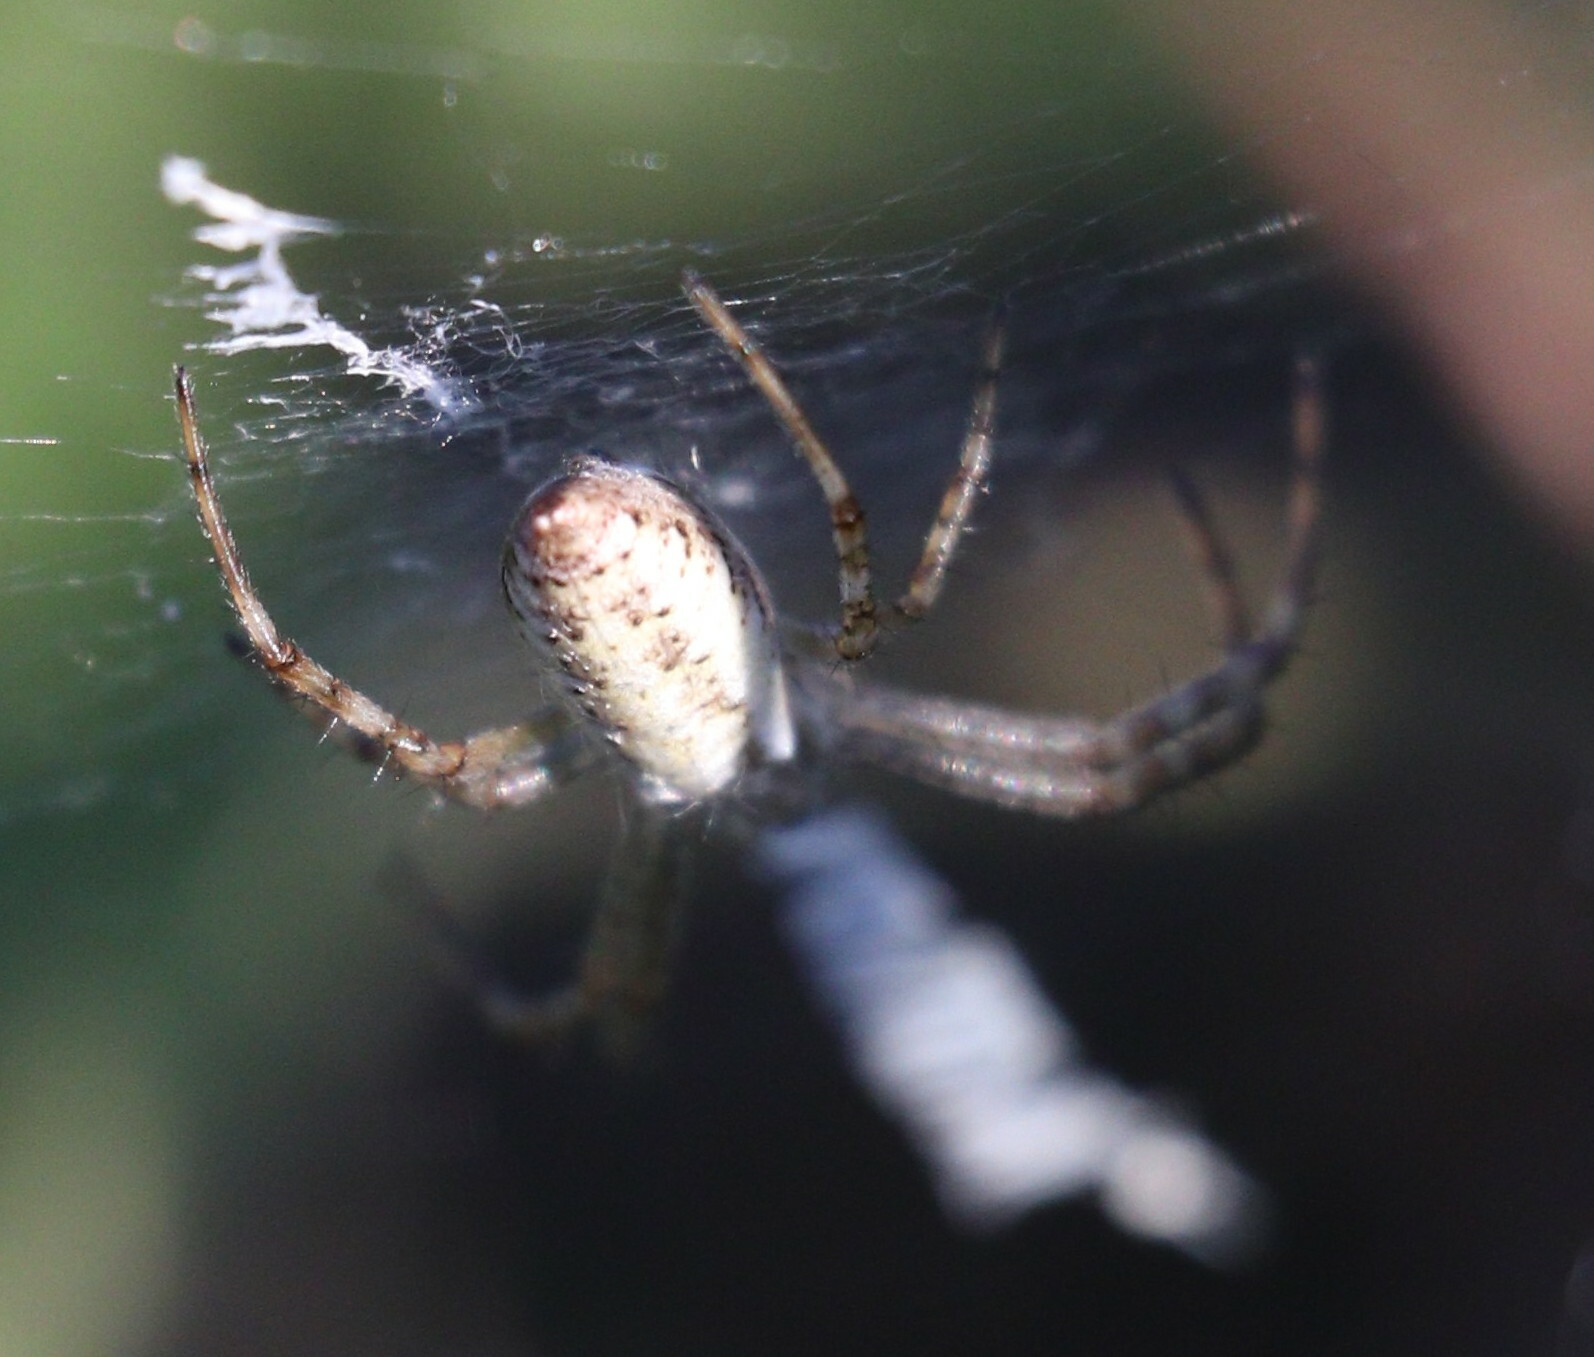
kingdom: Animalia
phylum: Arthropoda
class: Arachnida
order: Araneae
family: Araneidae
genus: Argiope
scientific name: Argiope bruennichi
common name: Wasp spider
